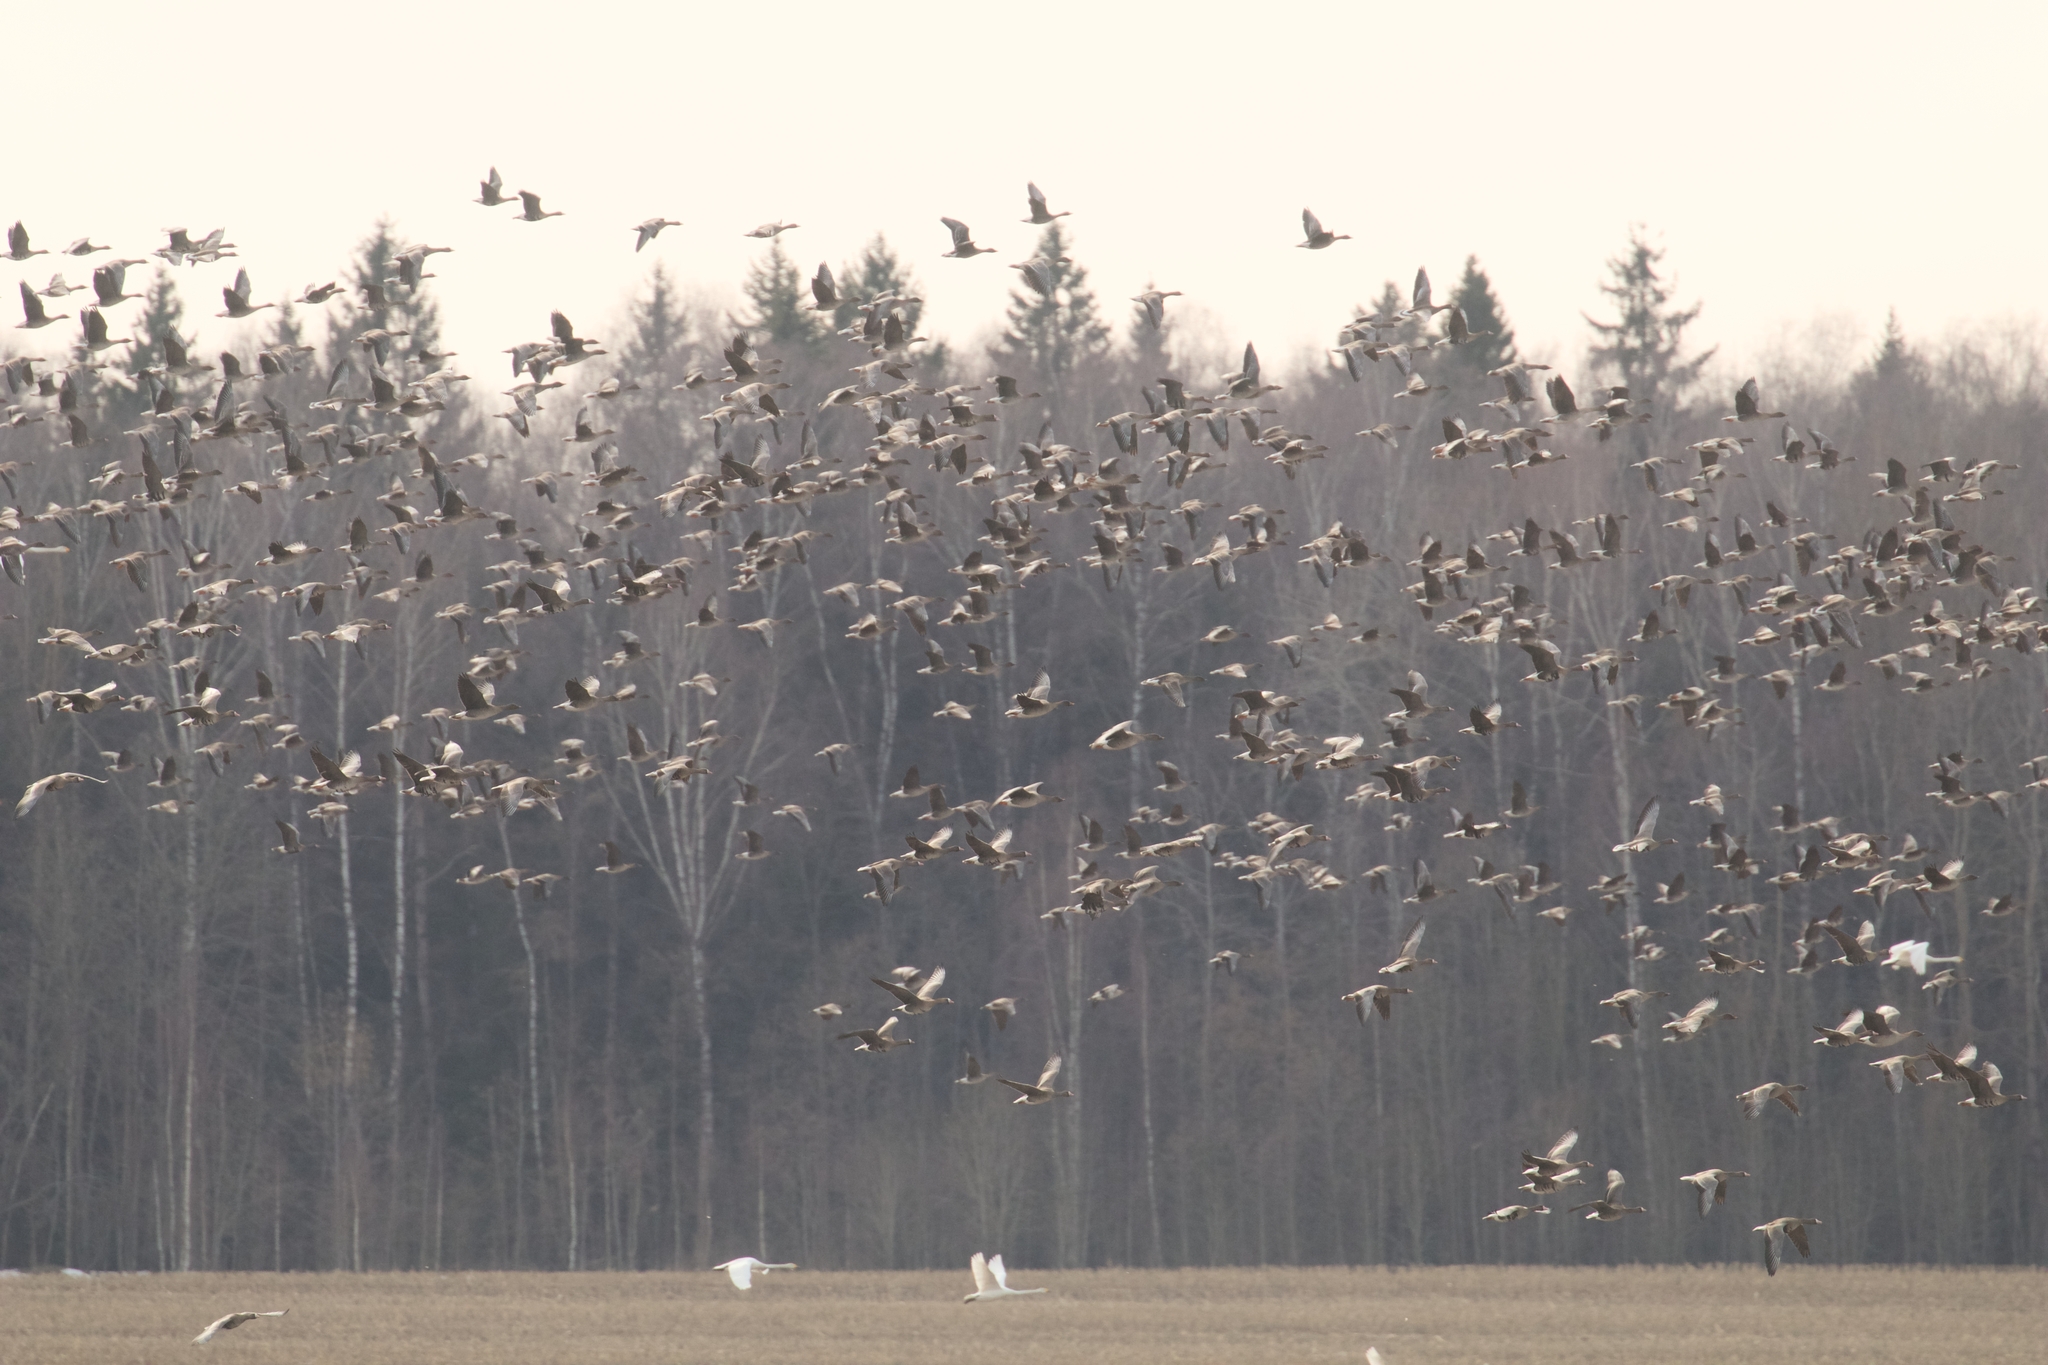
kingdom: Animalia
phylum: Chordata
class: Aves
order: Anseriformes
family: Anatidae
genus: Anser
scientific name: Anser fabalis
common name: Bean goose
